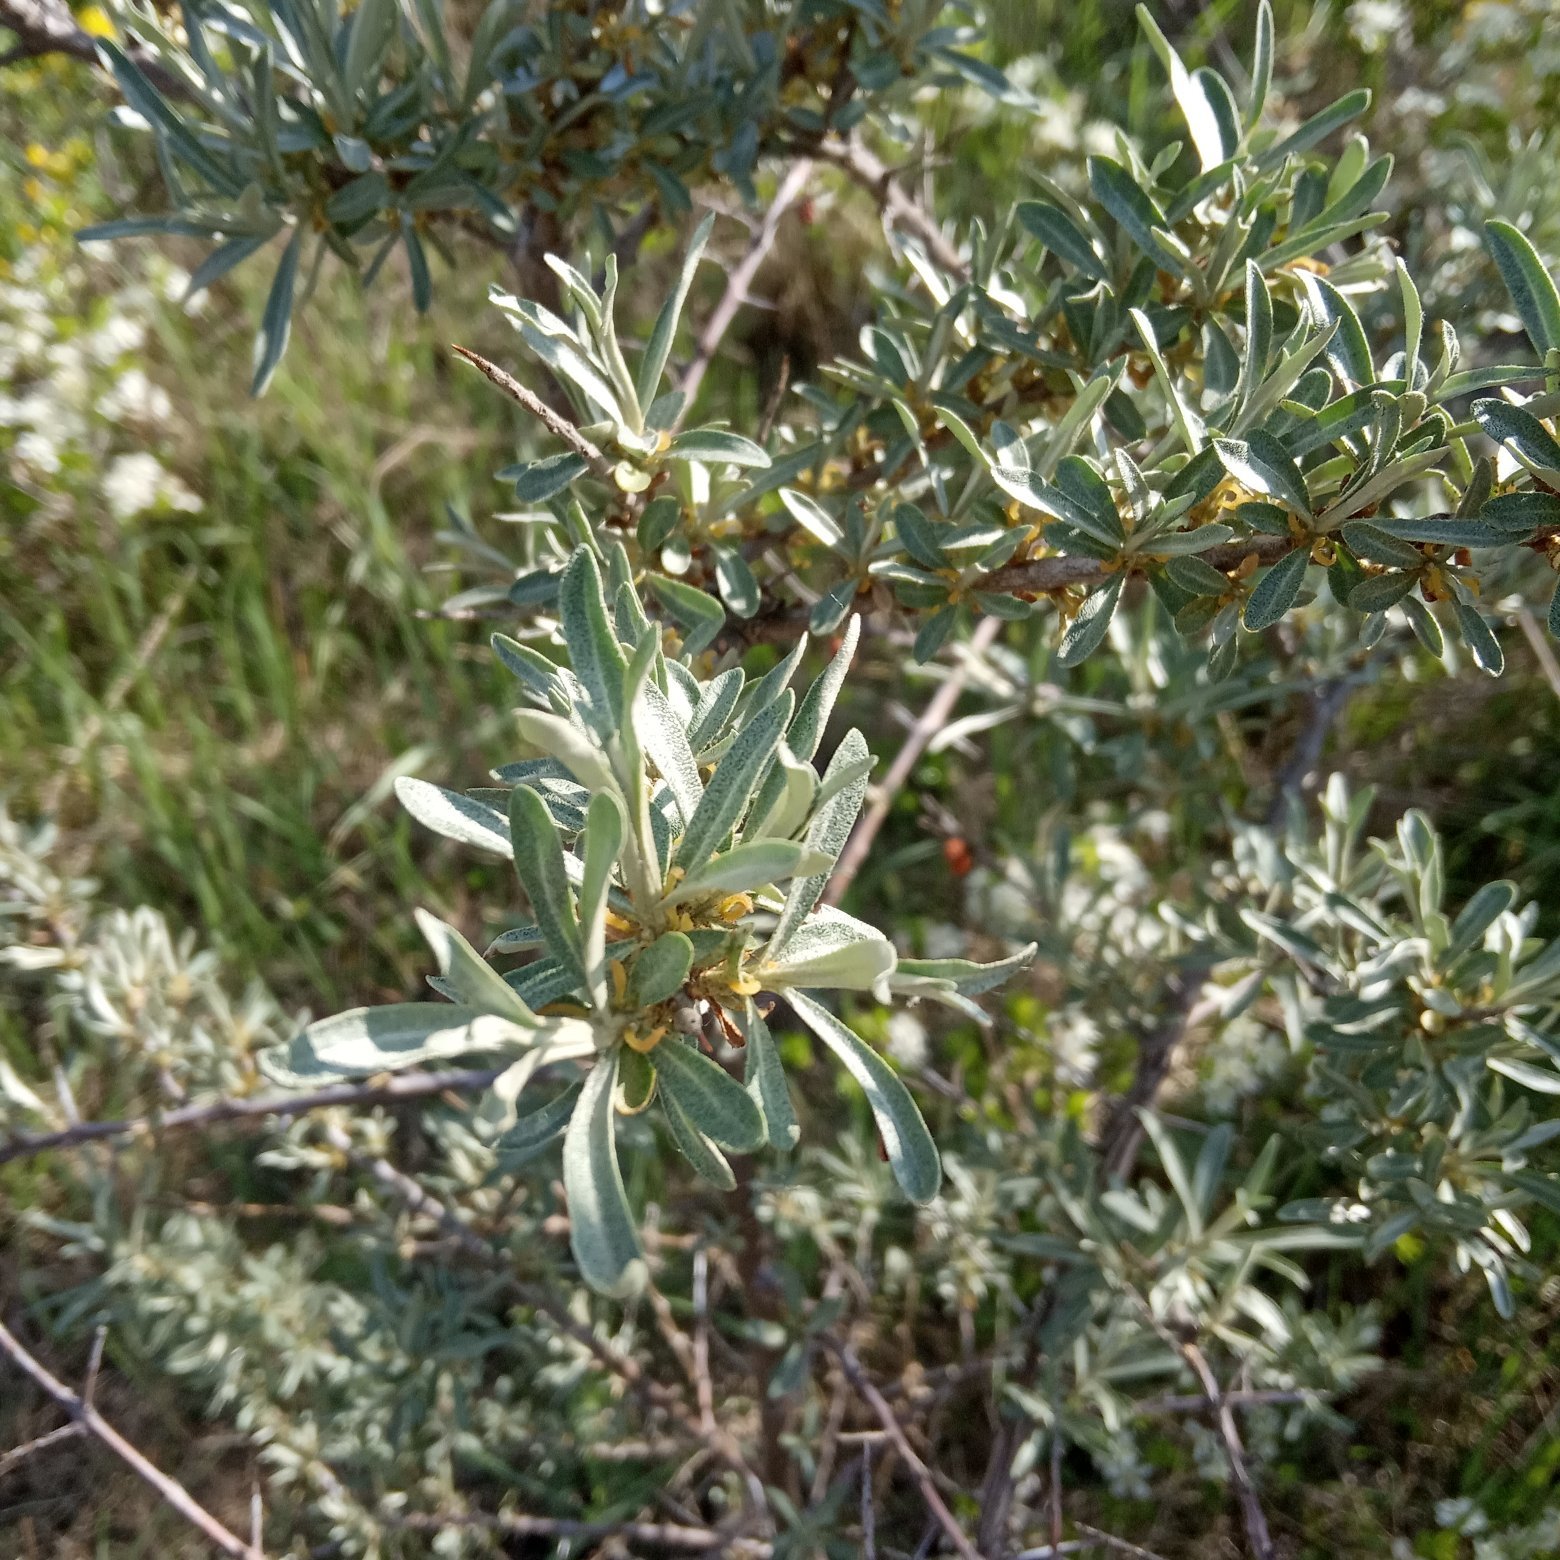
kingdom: Plantae
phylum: Tracheophyta
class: Magnoliopsida
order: Rosales
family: Elaeagnaceae
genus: Hippophae
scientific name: Hippophae rhamnoides
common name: Sea-buckthorn
